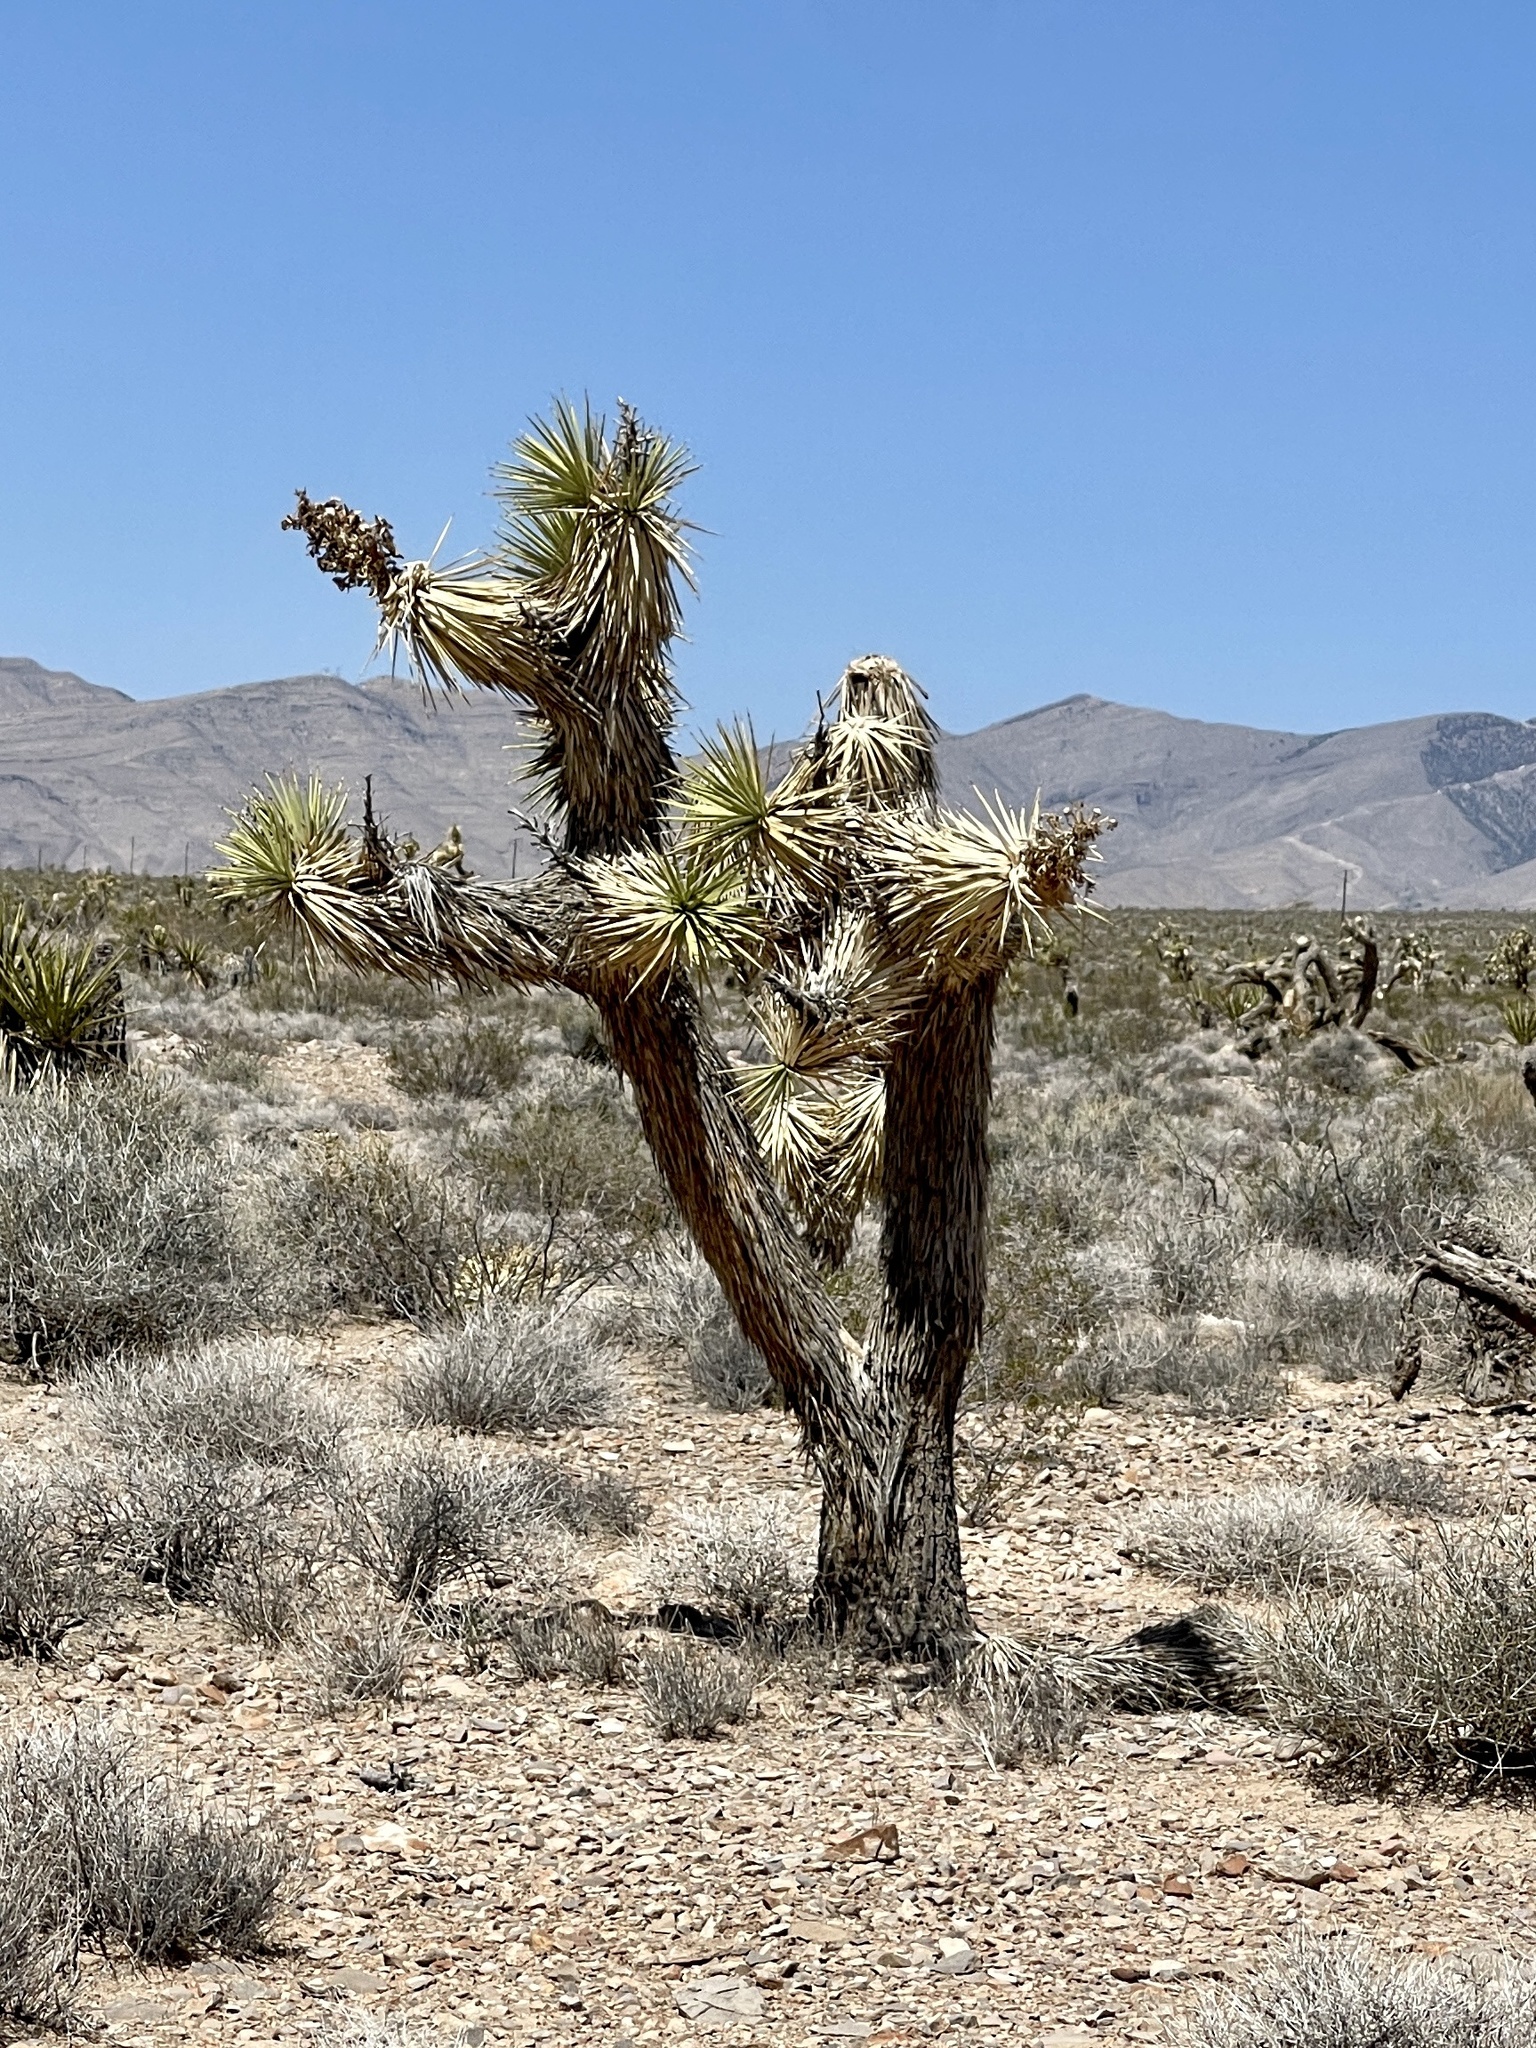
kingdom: Plantae
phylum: Tracheophyta
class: Liliopsida
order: Asparagales
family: Asparagaceae
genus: Yucca
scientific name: Yucca brevifolia
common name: Joshua tree
